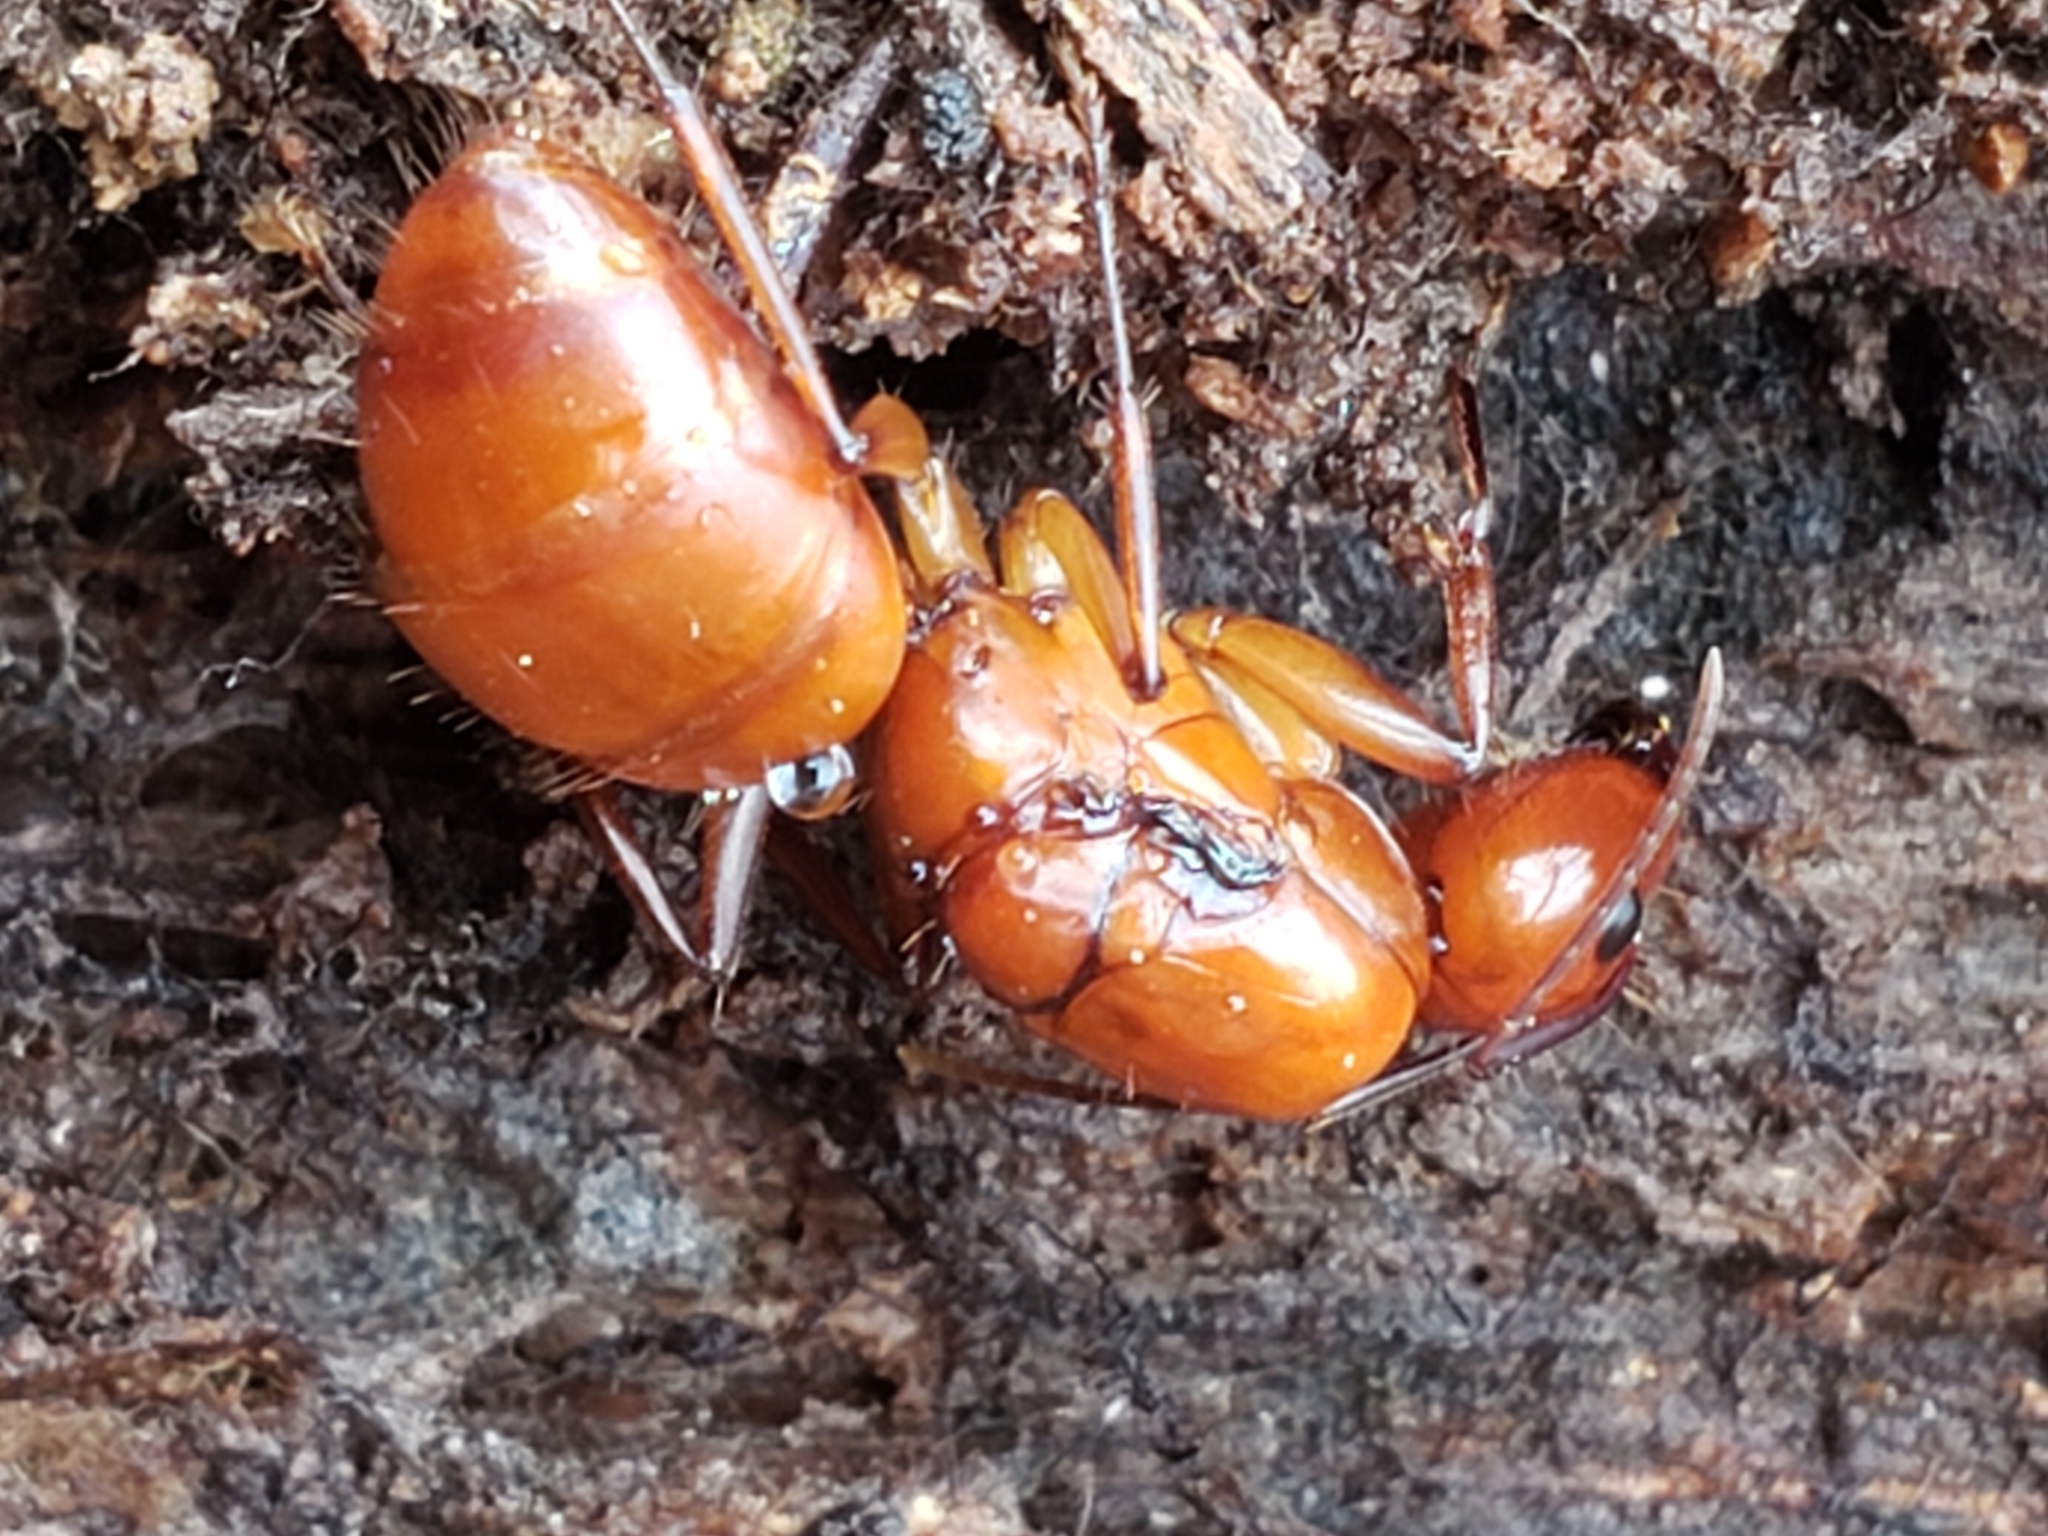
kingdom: Animalia
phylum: Arthropoda
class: Insecta
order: Hymenoptera
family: Formicidae
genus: Camponotus
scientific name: Camponotus castaneus
